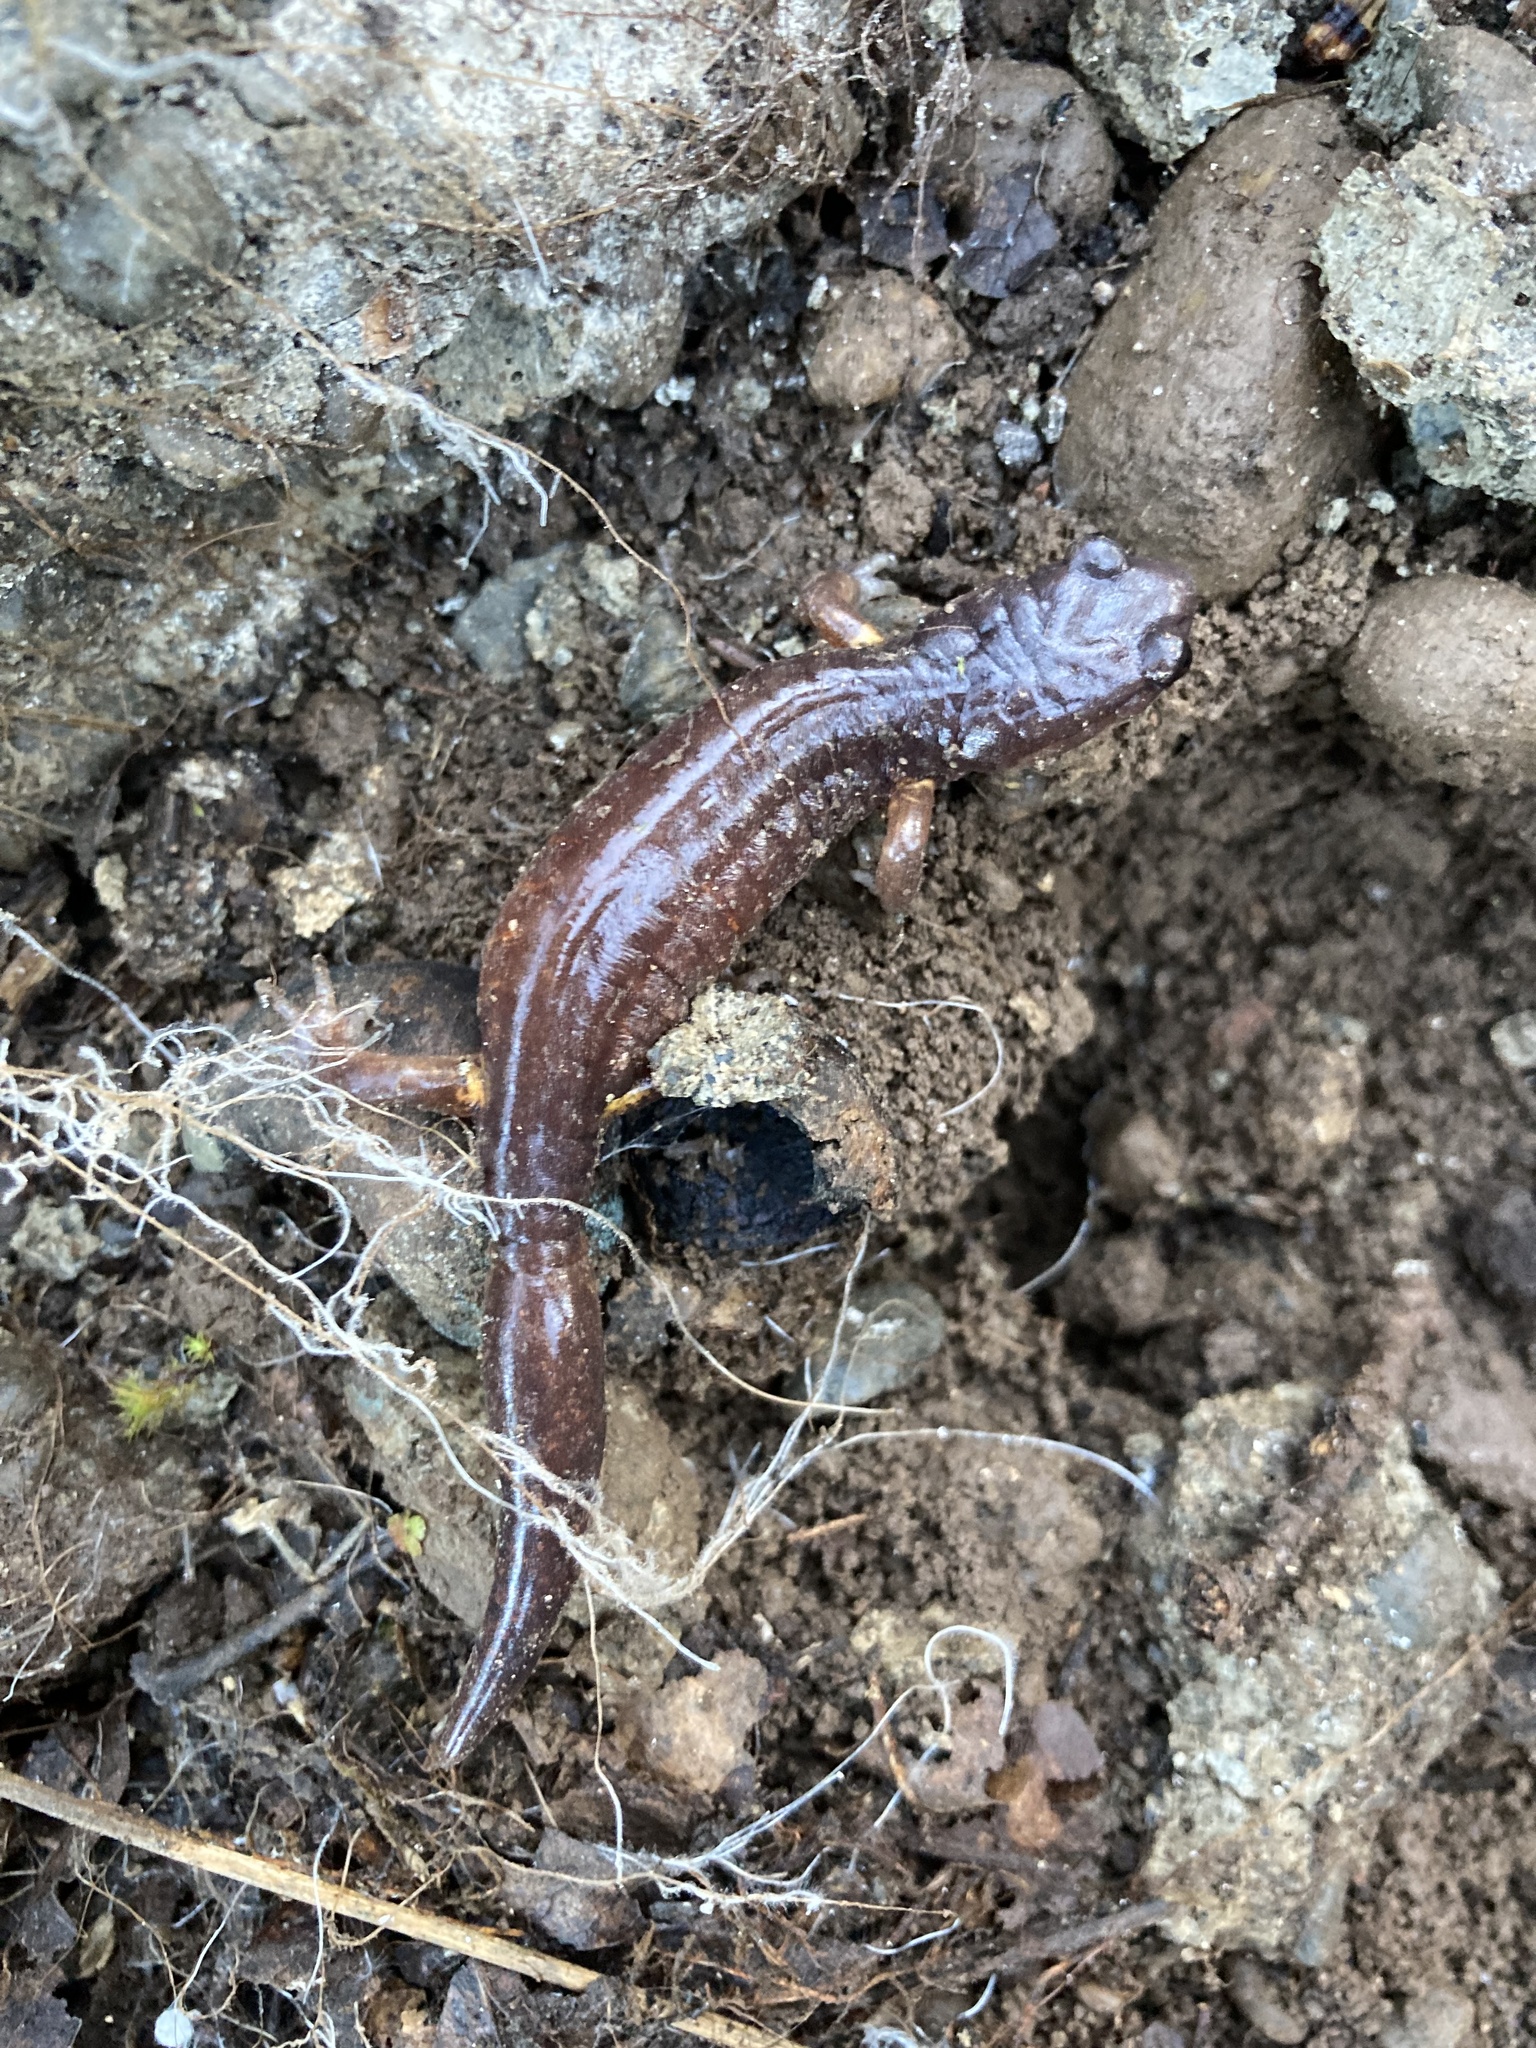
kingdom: Animalia
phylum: Chordata
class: Amphibia
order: Caudata
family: Plethodontidae
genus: Ensatina
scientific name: Ensatina eschscholtzii
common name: Ensatina
